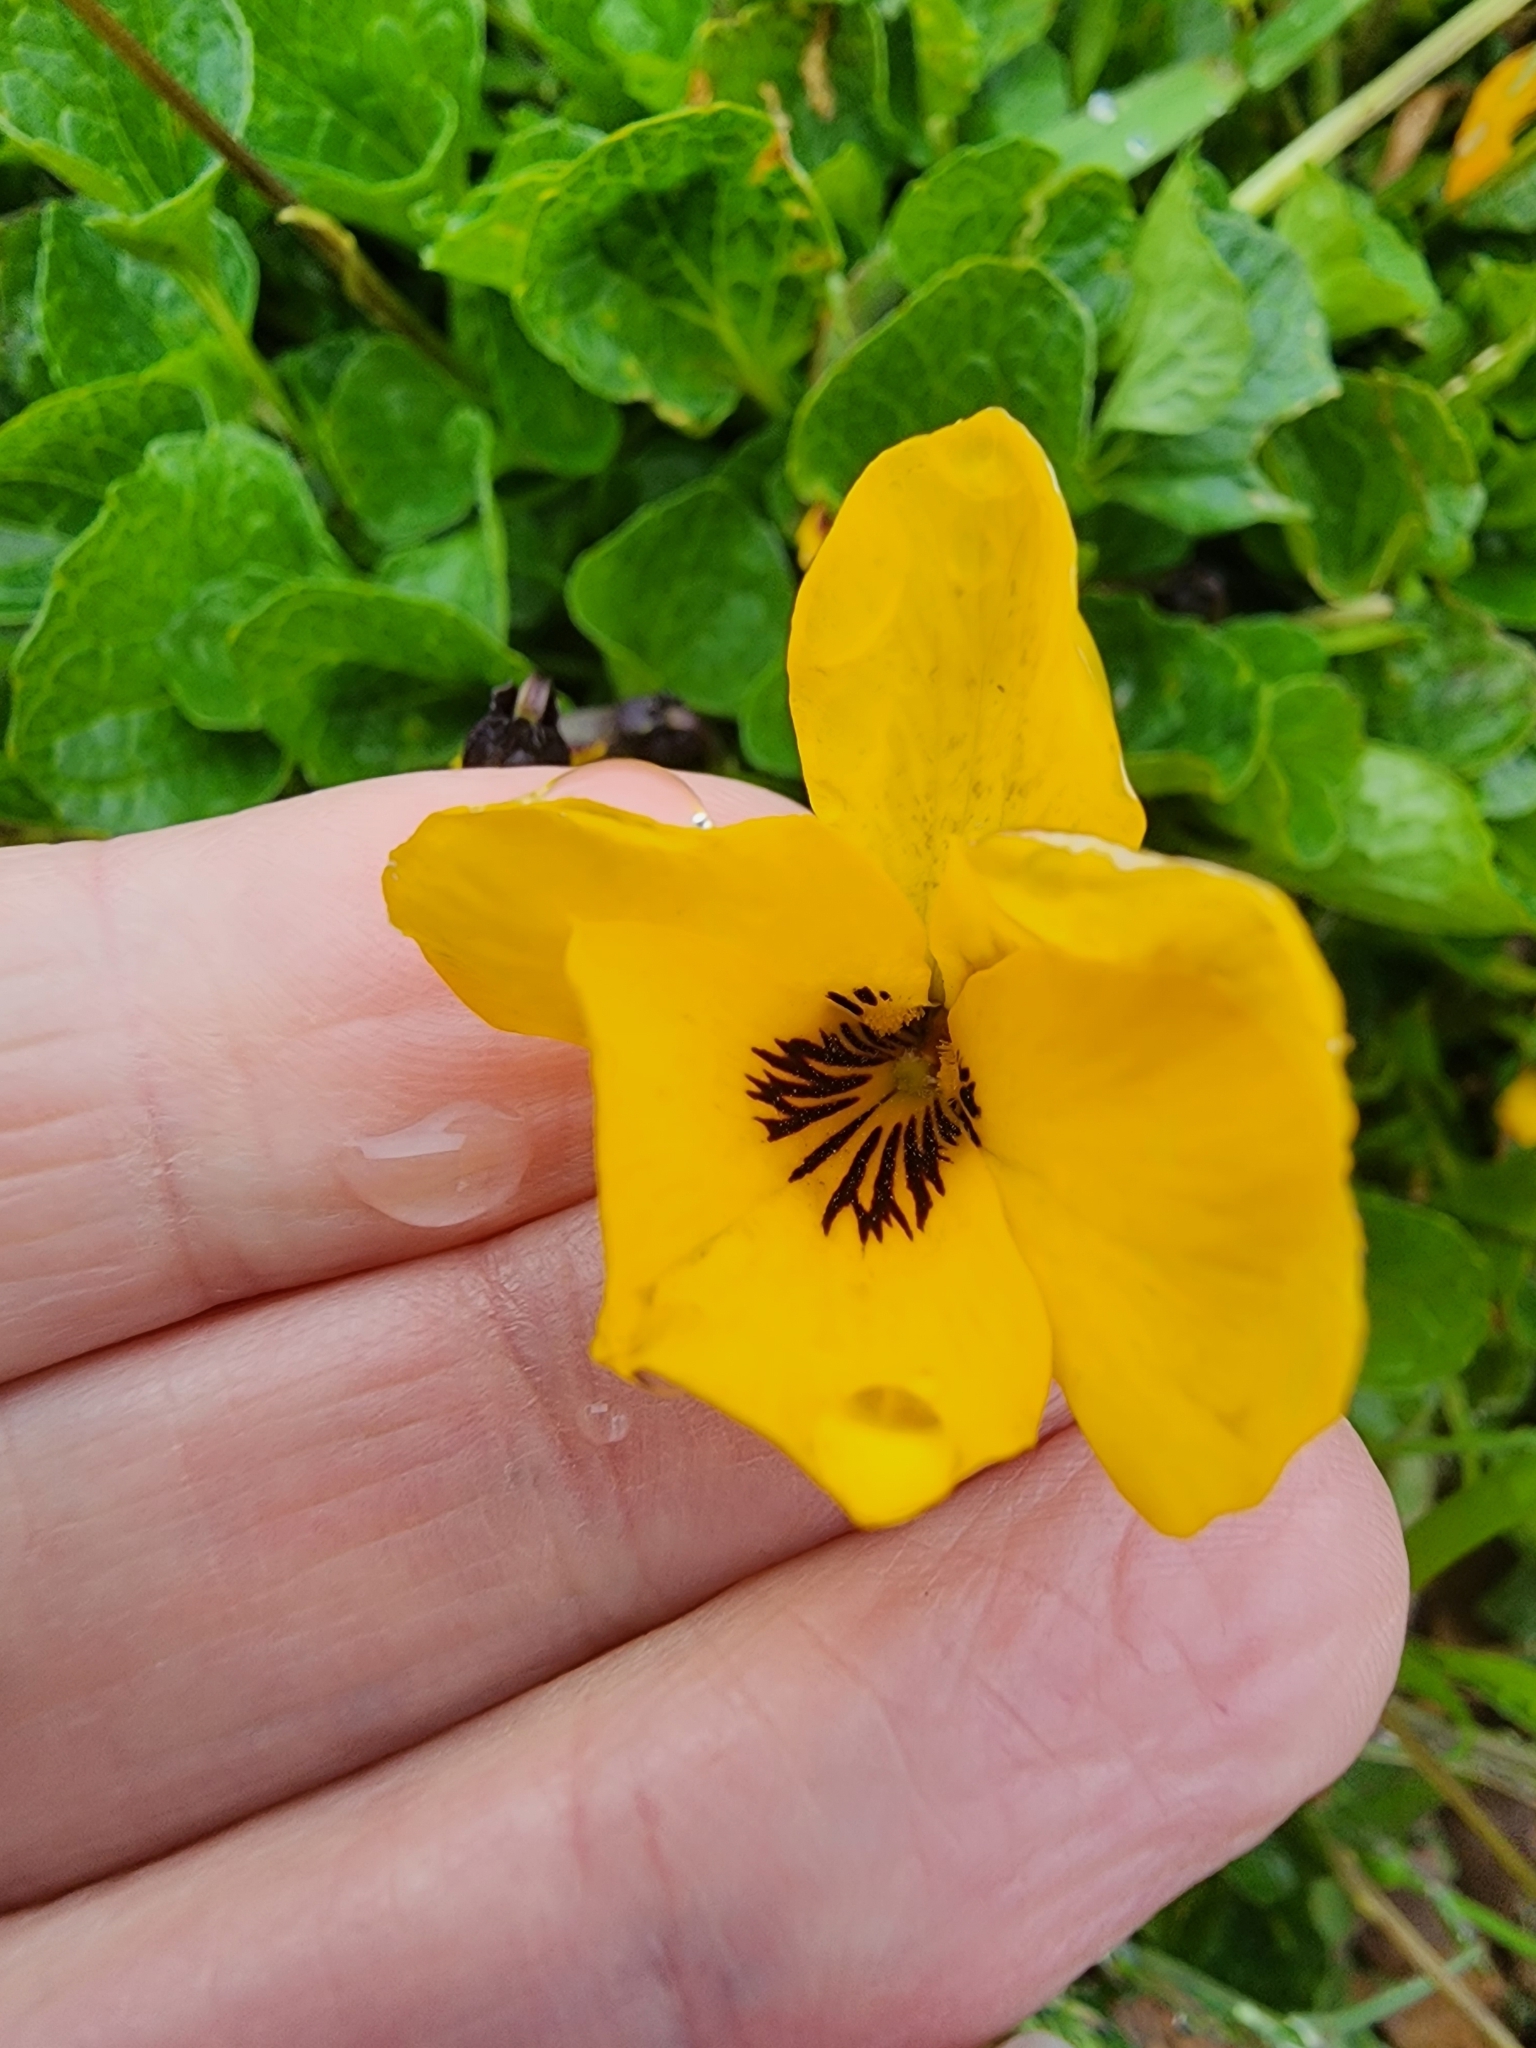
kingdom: Plantae
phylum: Tracheophyta
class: Magnoliopsida
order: Malpighiales
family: Violaceae
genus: Viola
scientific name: Viola pedunculata
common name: California golden violet
